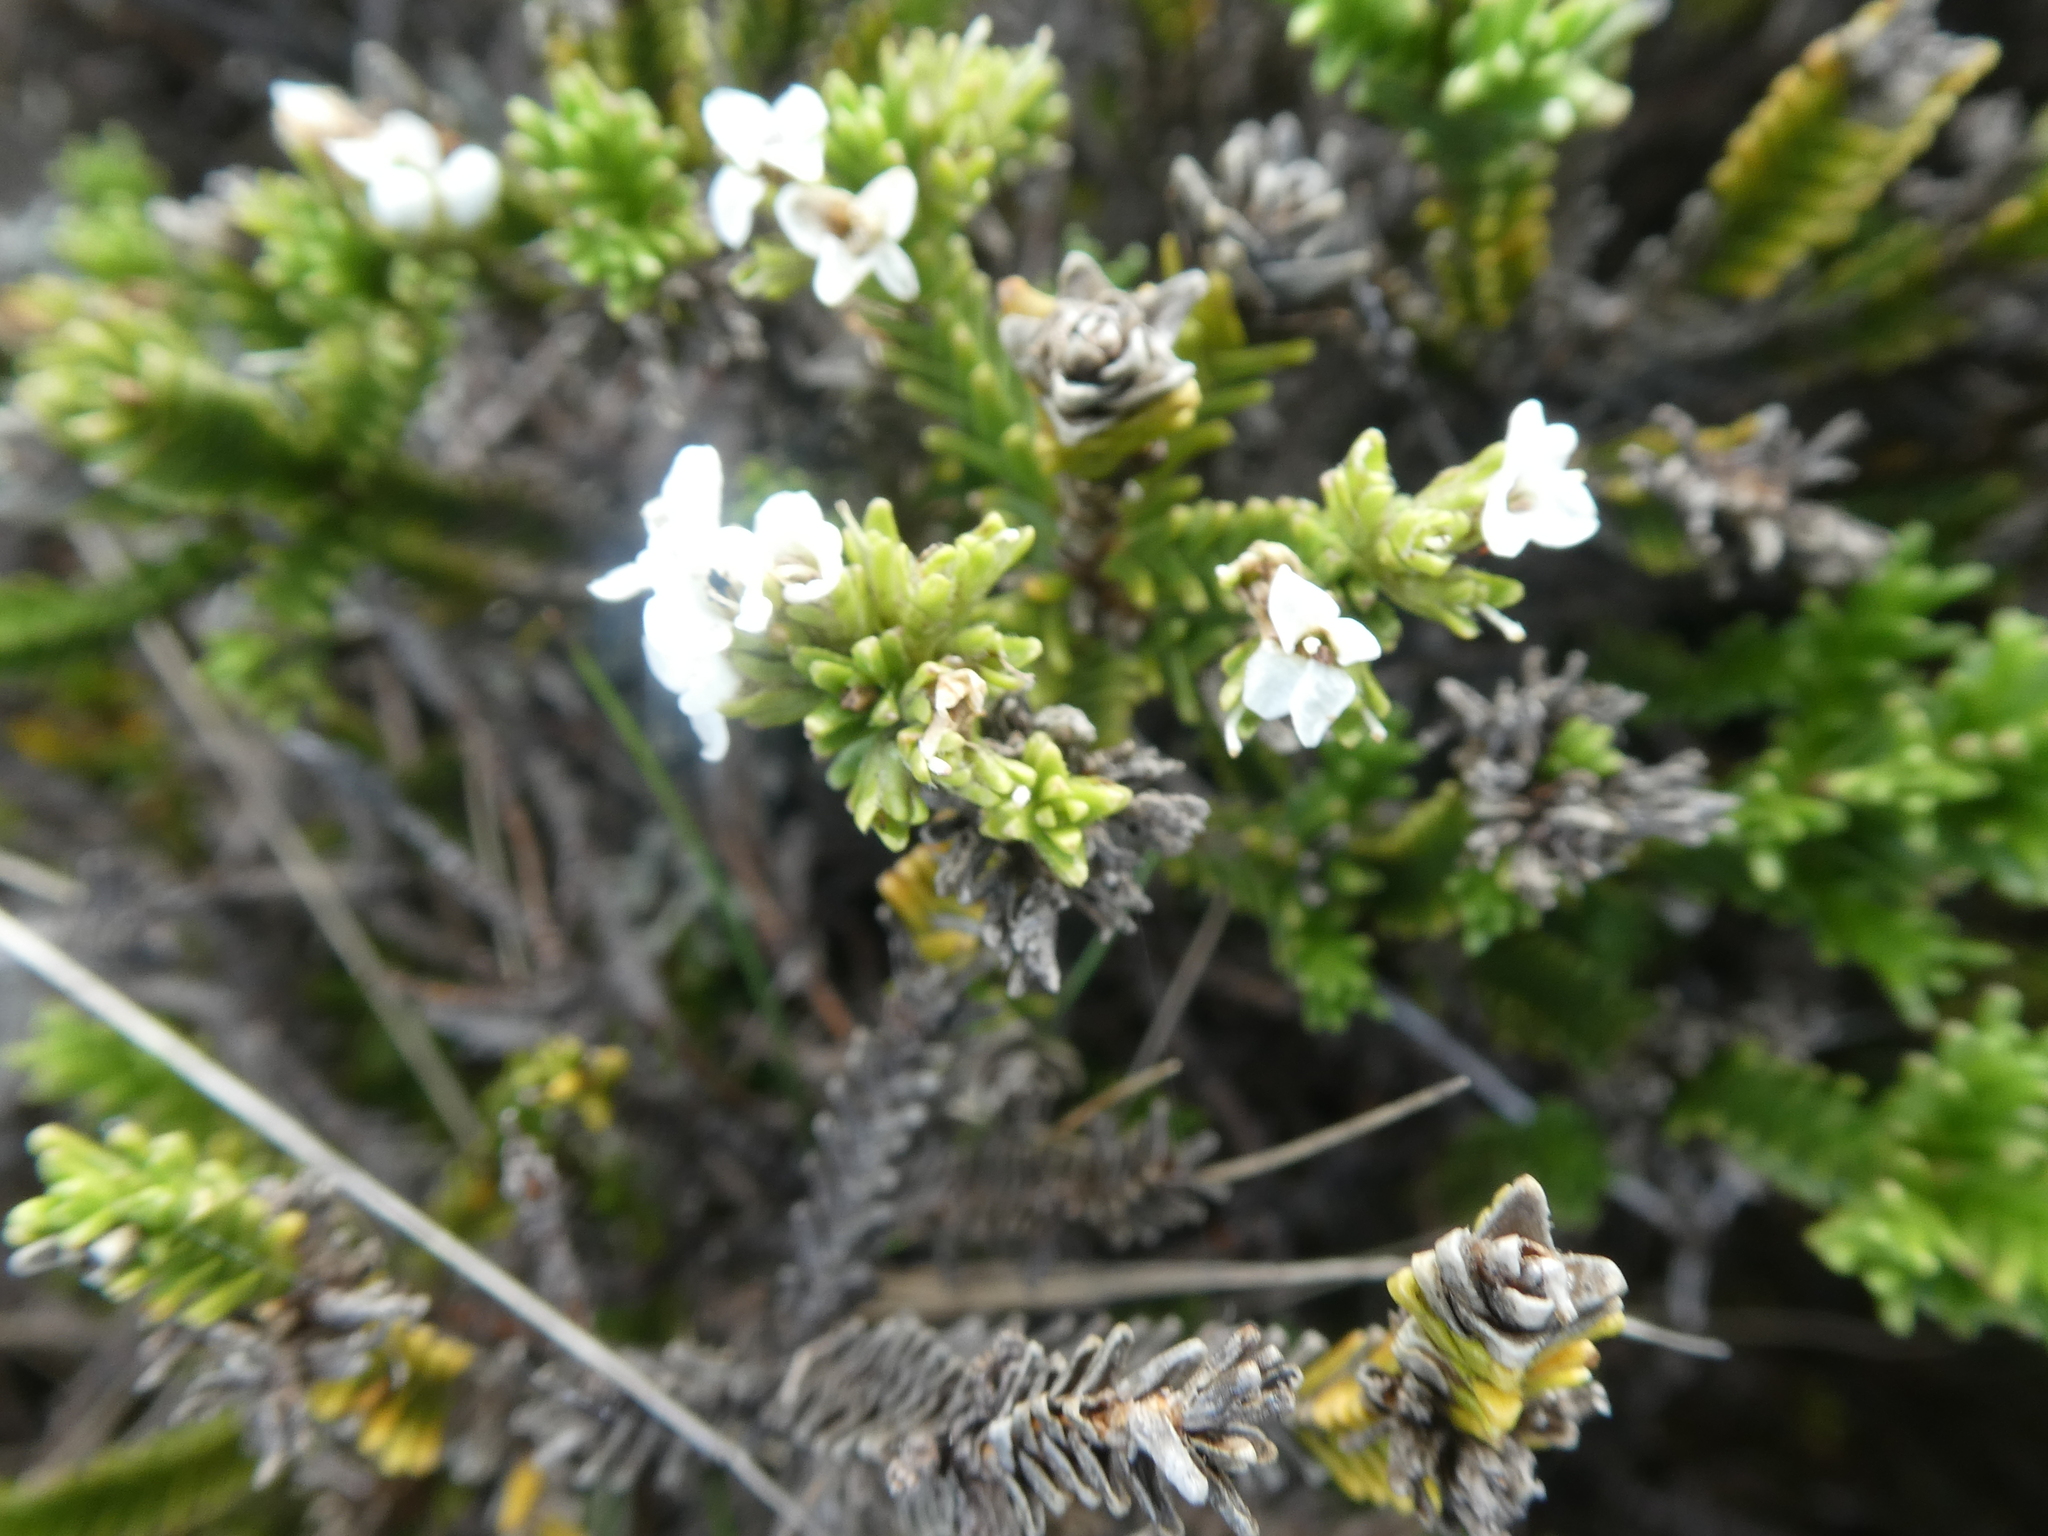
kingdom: Plantae
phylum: Tracheophyta
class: Magnoliopsida
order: Lamiales
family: Plantaginaceae
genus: Veronica
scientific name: Veronica hookeri
